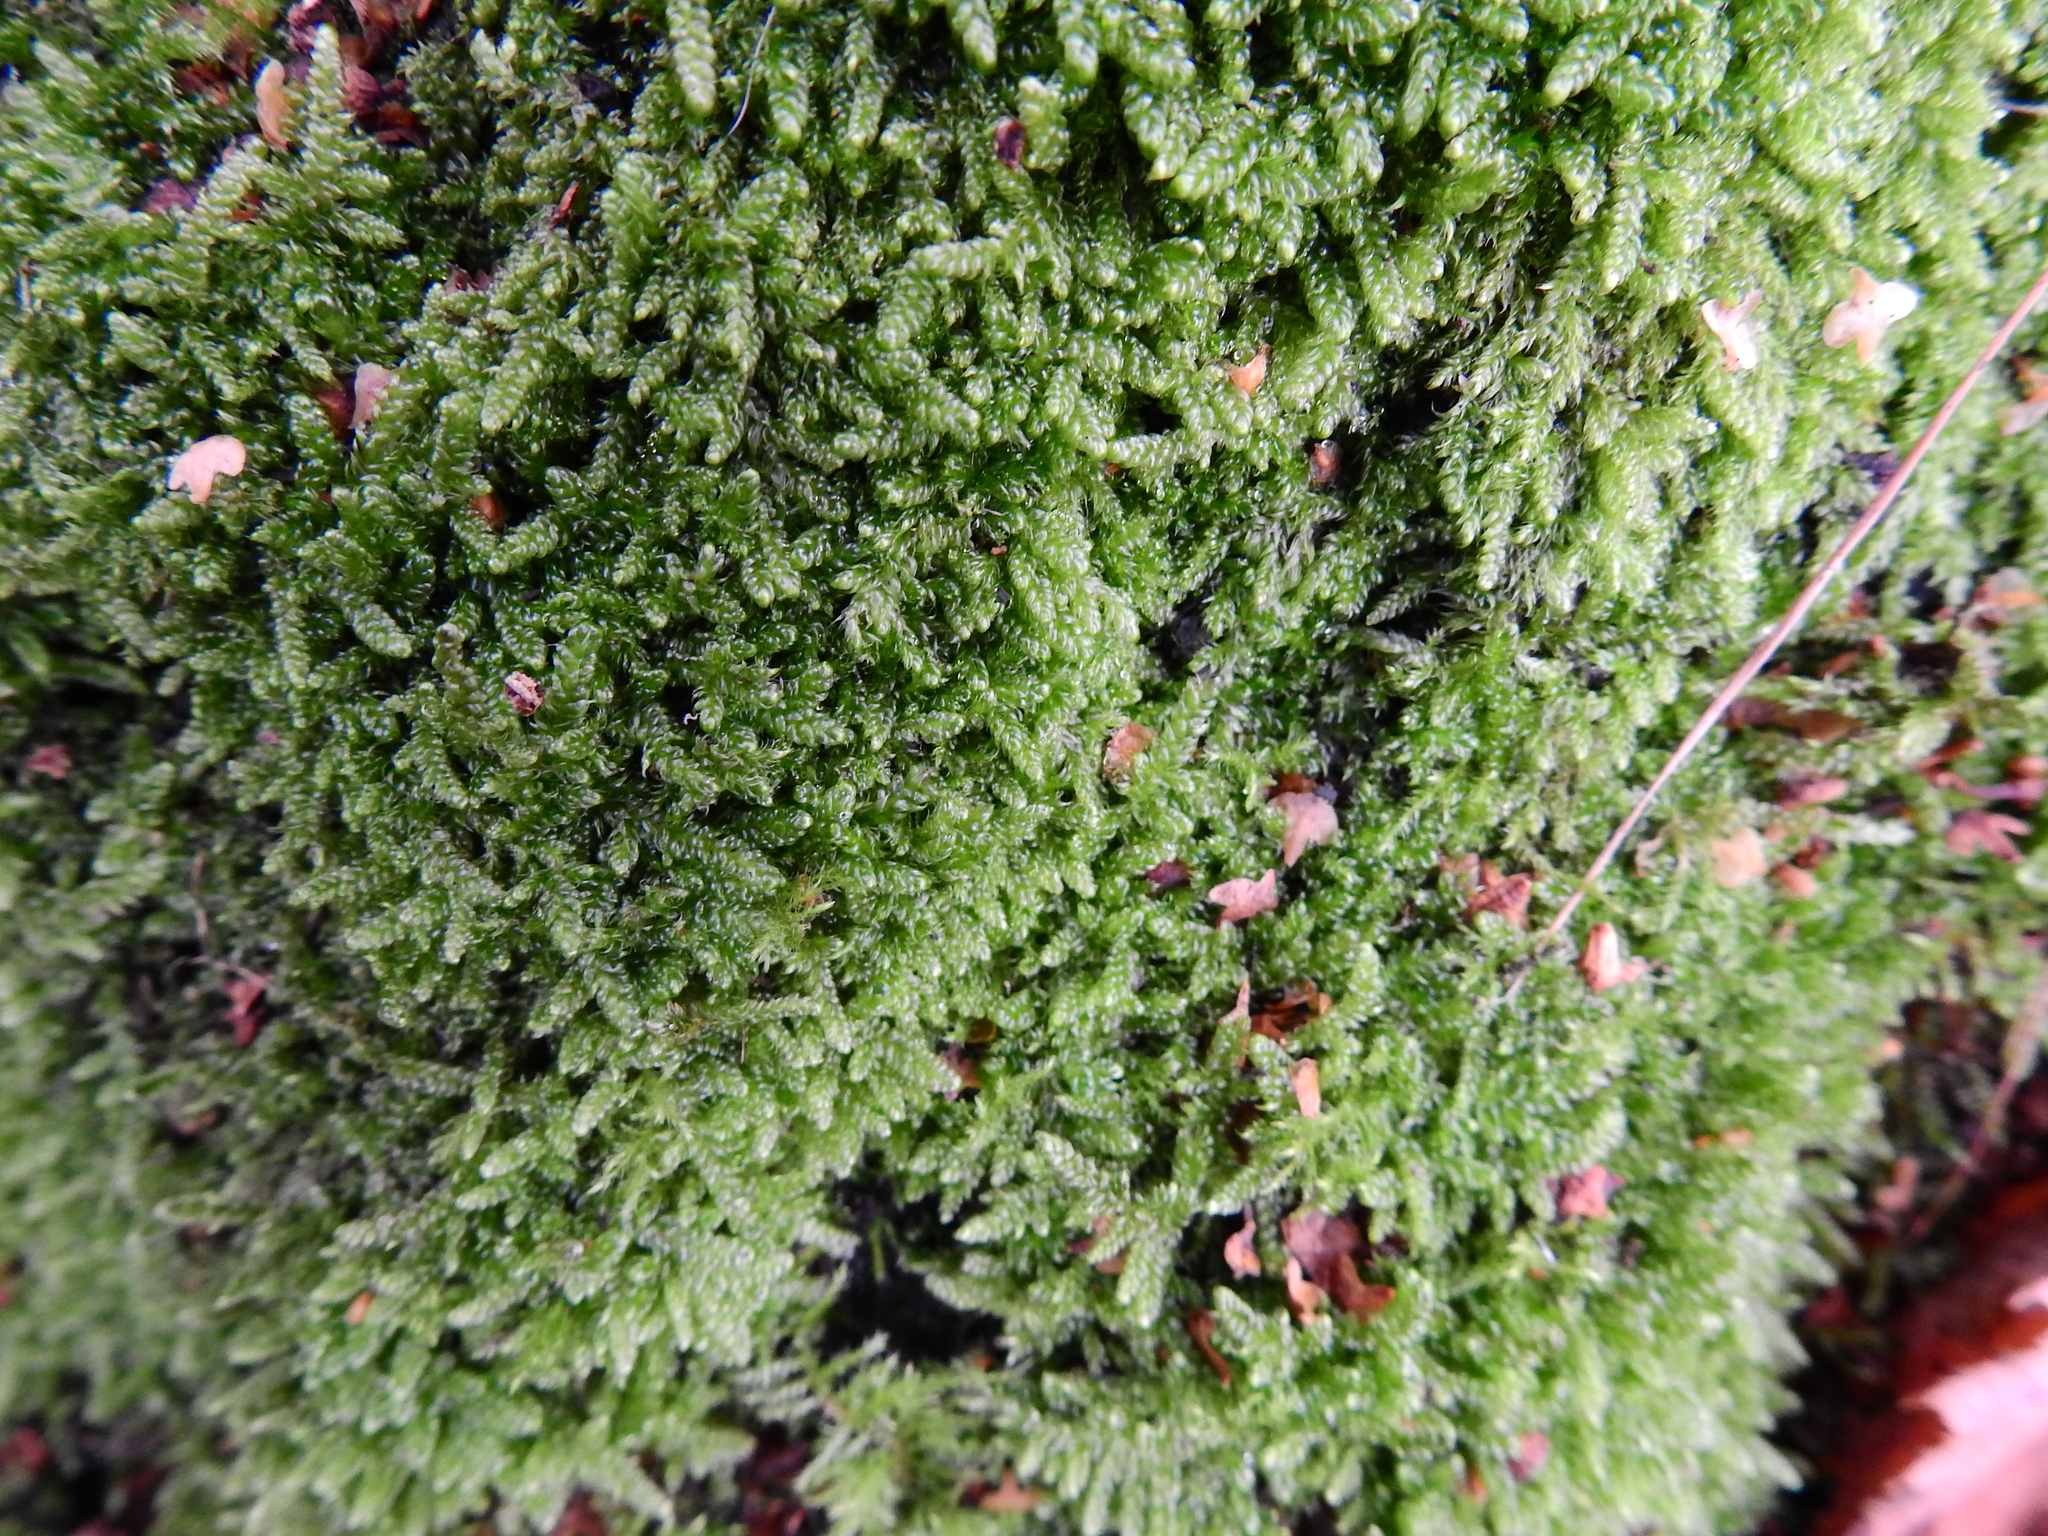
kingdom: Plantae
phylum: Bryophyta
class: Bryopsida
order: Hypnales
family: Hypnaceae
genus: Hypnum
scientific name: Hypnum cupressiforme
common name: Cypress-leaved plait-moss
